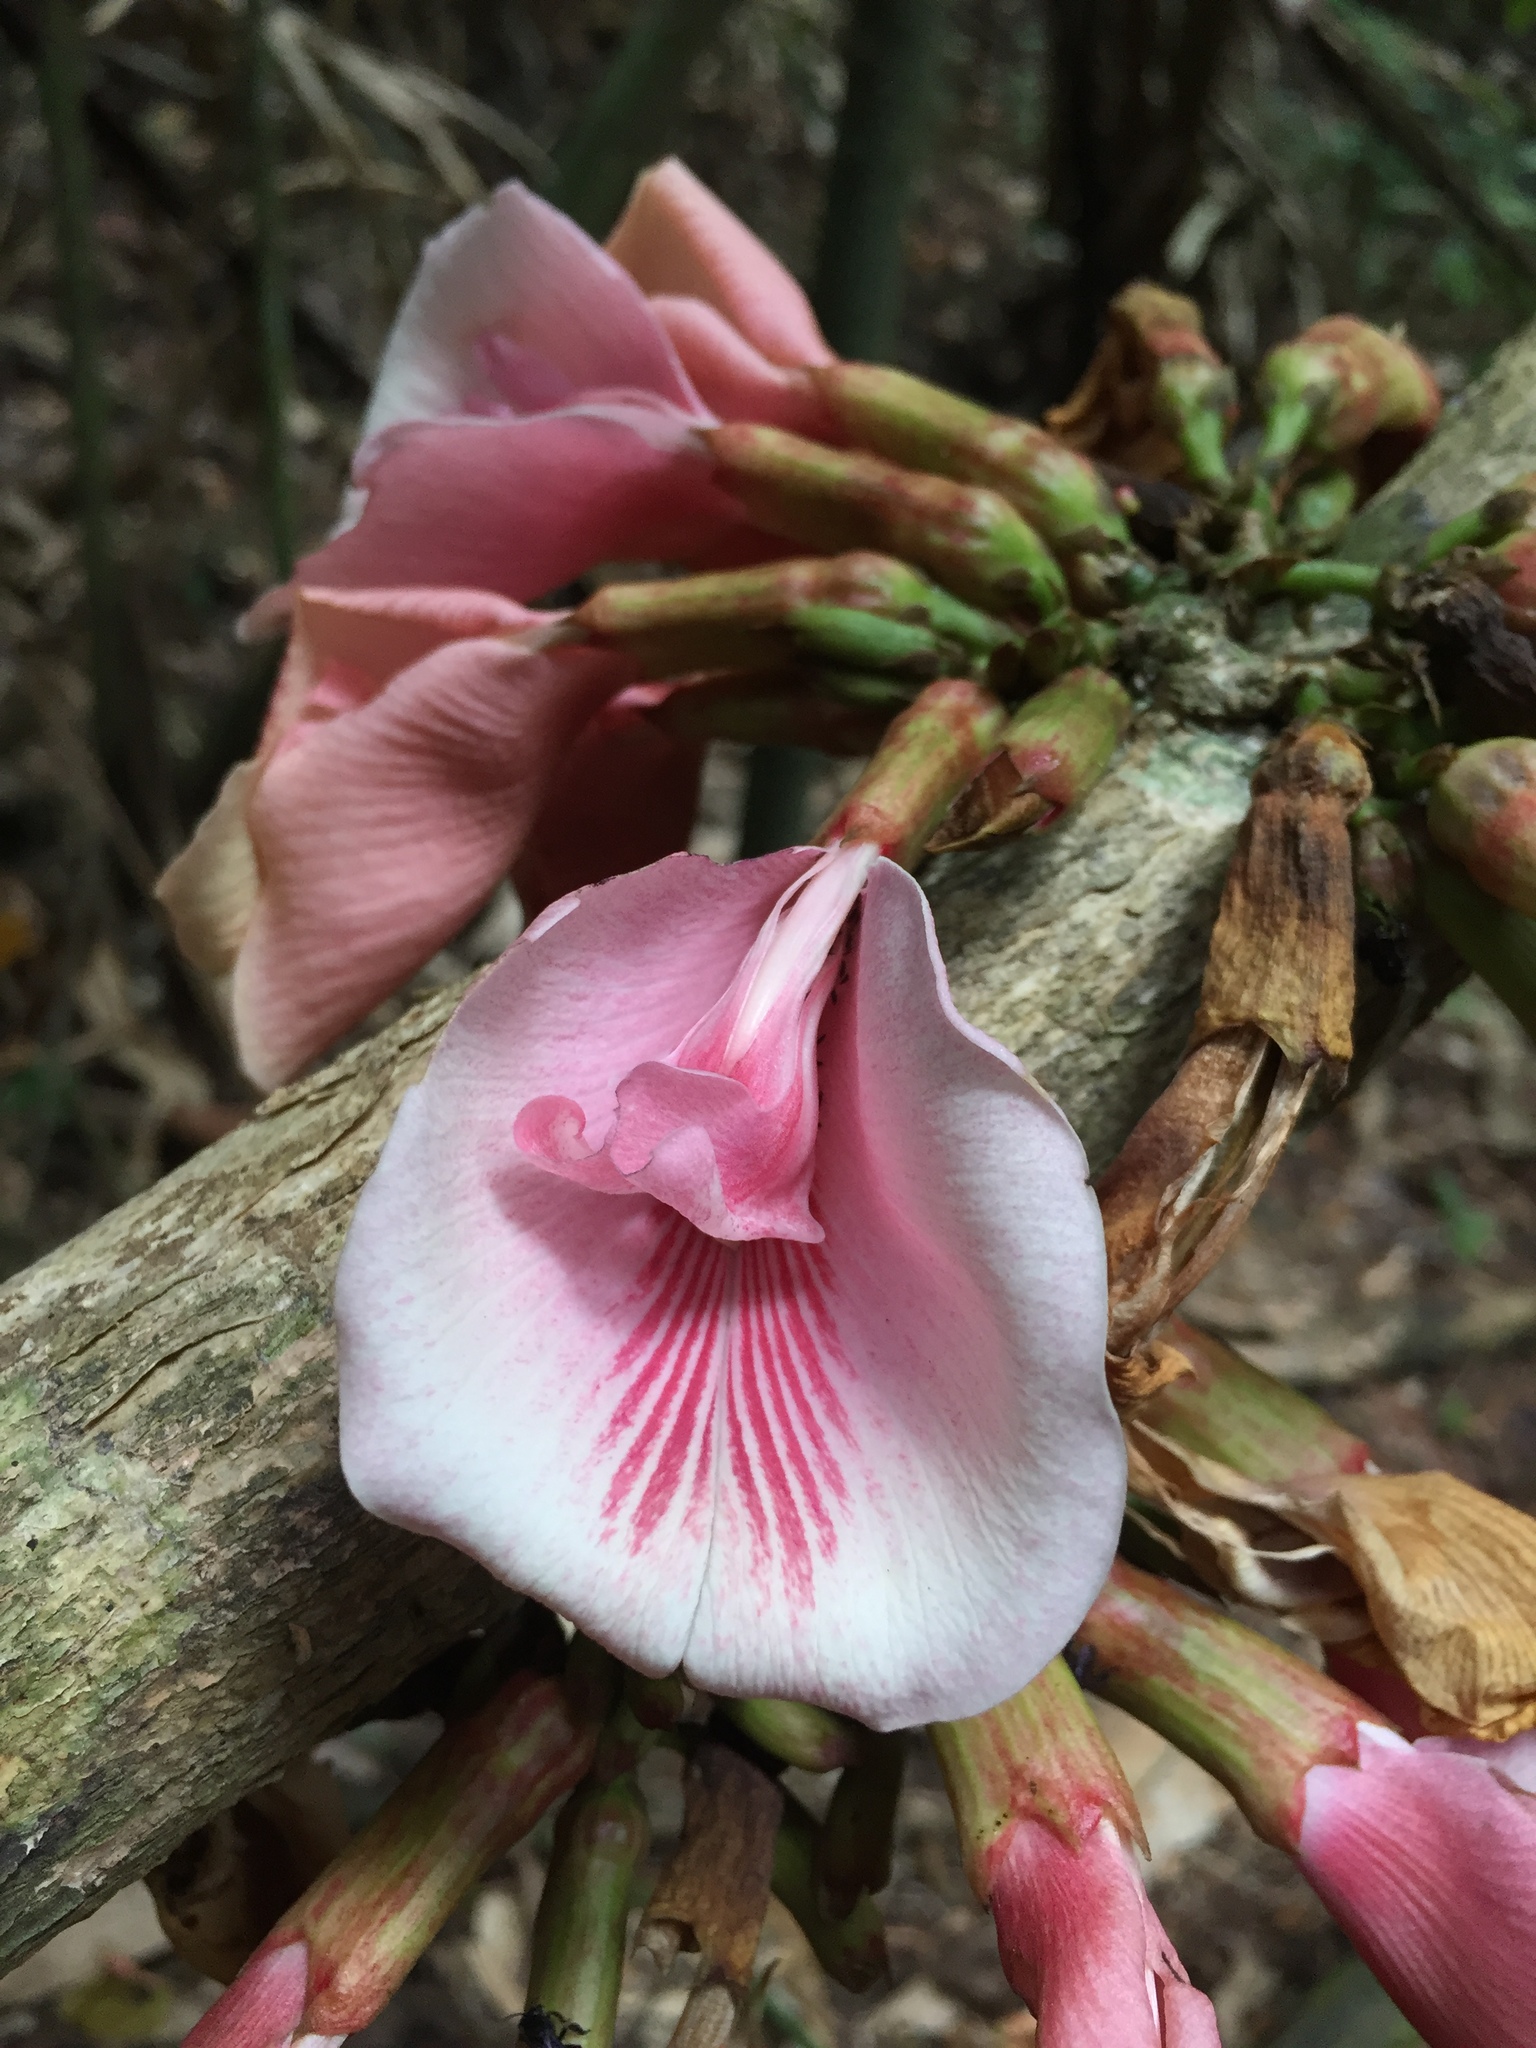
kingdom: Plantae
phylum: Tracheophyta
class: Magnoliopsida
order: Fabales
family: Fabaceae
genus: Clitoria
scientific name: Clitoria javitensis
